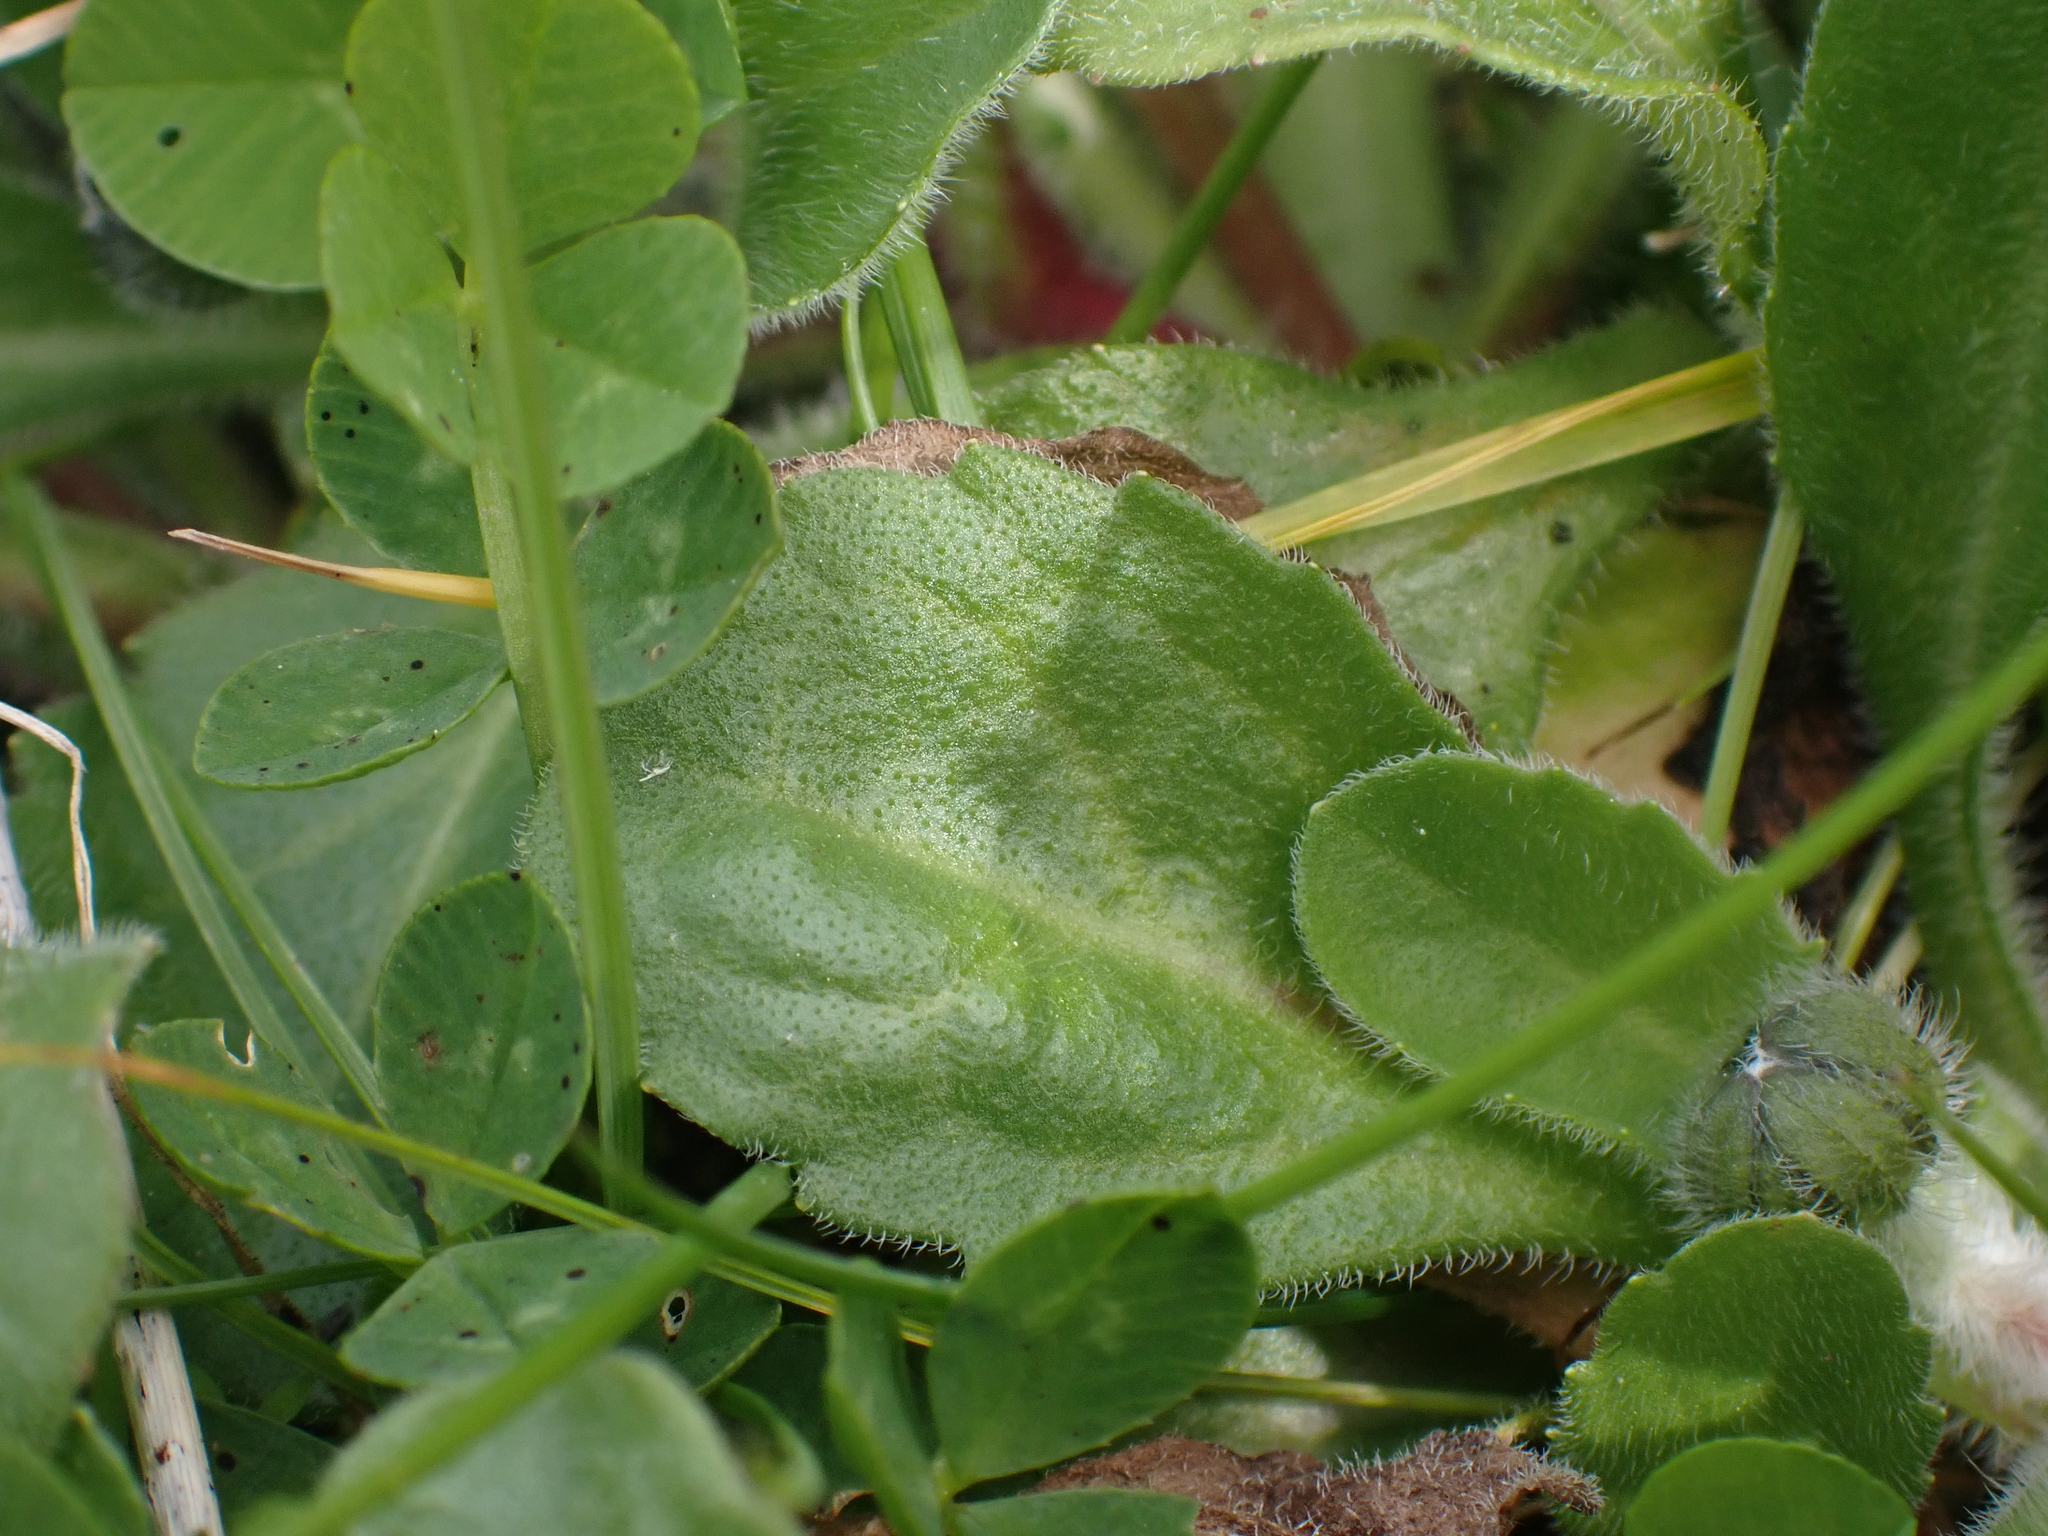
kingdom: Plantae
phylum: Tracheophyta
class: Magnoliopsida
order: Asterales
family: Asteraceae
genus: Bellis
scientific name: Bellis perennis
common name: Lawndaisy
